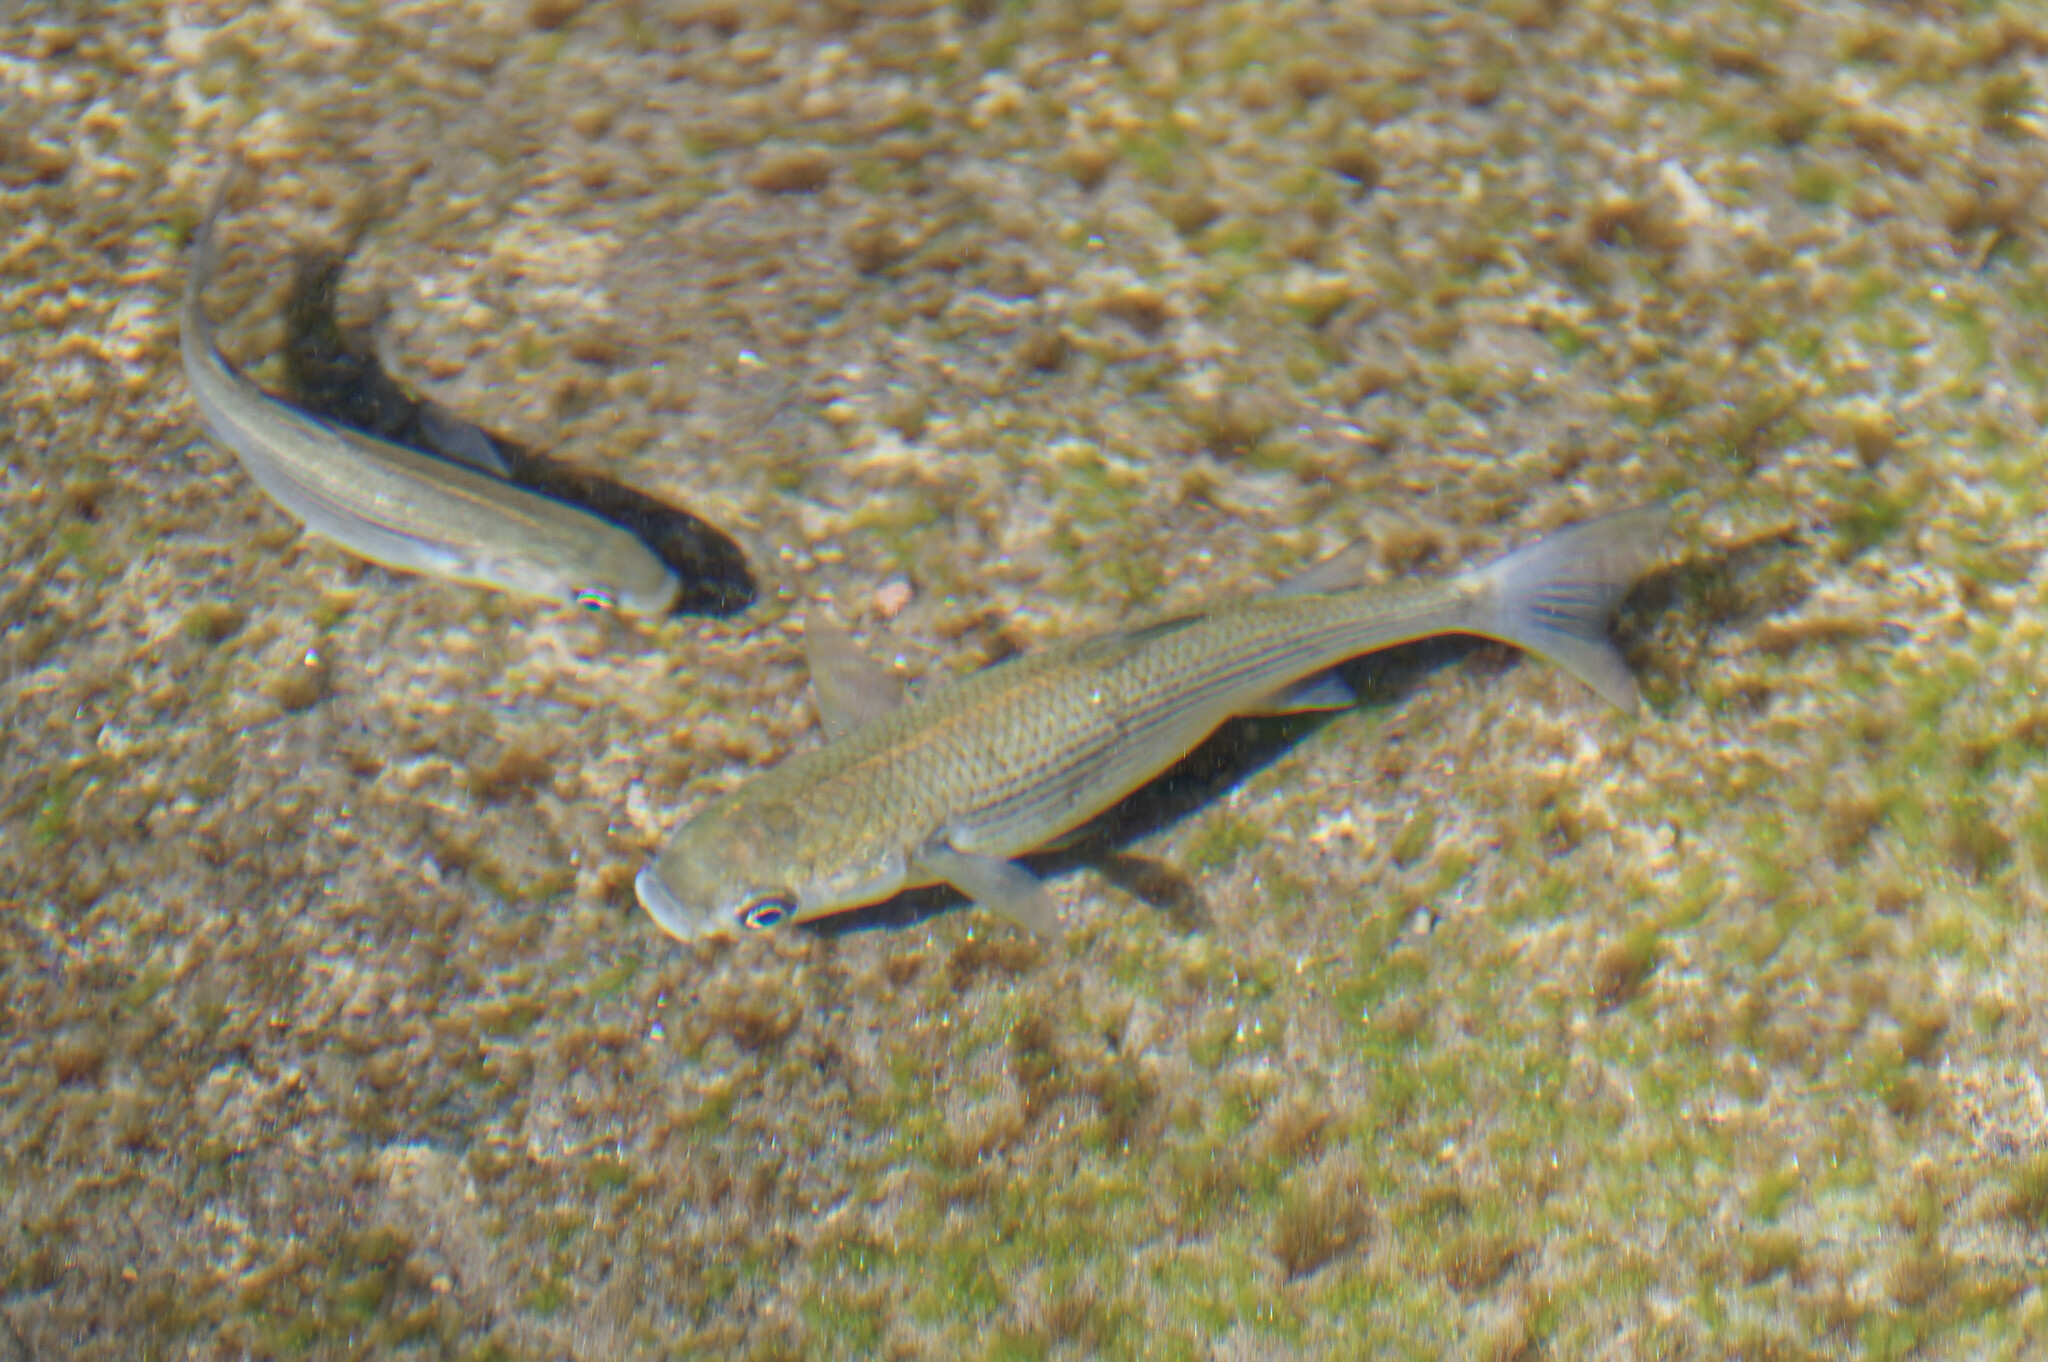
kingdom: Animalia
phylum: Chordata
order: Mugiliformes
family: Mugilidae
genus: Chelon
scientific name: Chelon labrosus
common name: Thick-lipped mullet
